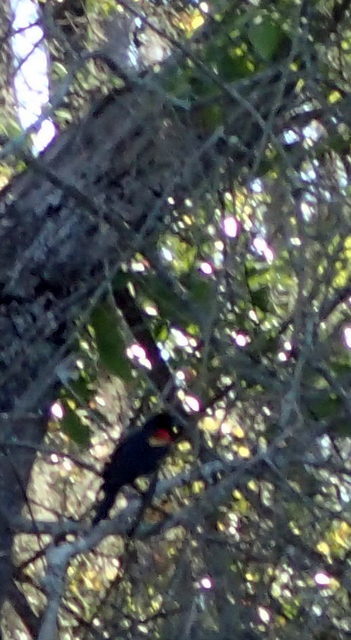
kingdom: Animalia
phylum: Chordata
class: Aves
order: Passeriformes
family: Icteridae
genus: Agelaius
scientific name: Agelaius phoeniceus
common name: Red-winged blackbird
